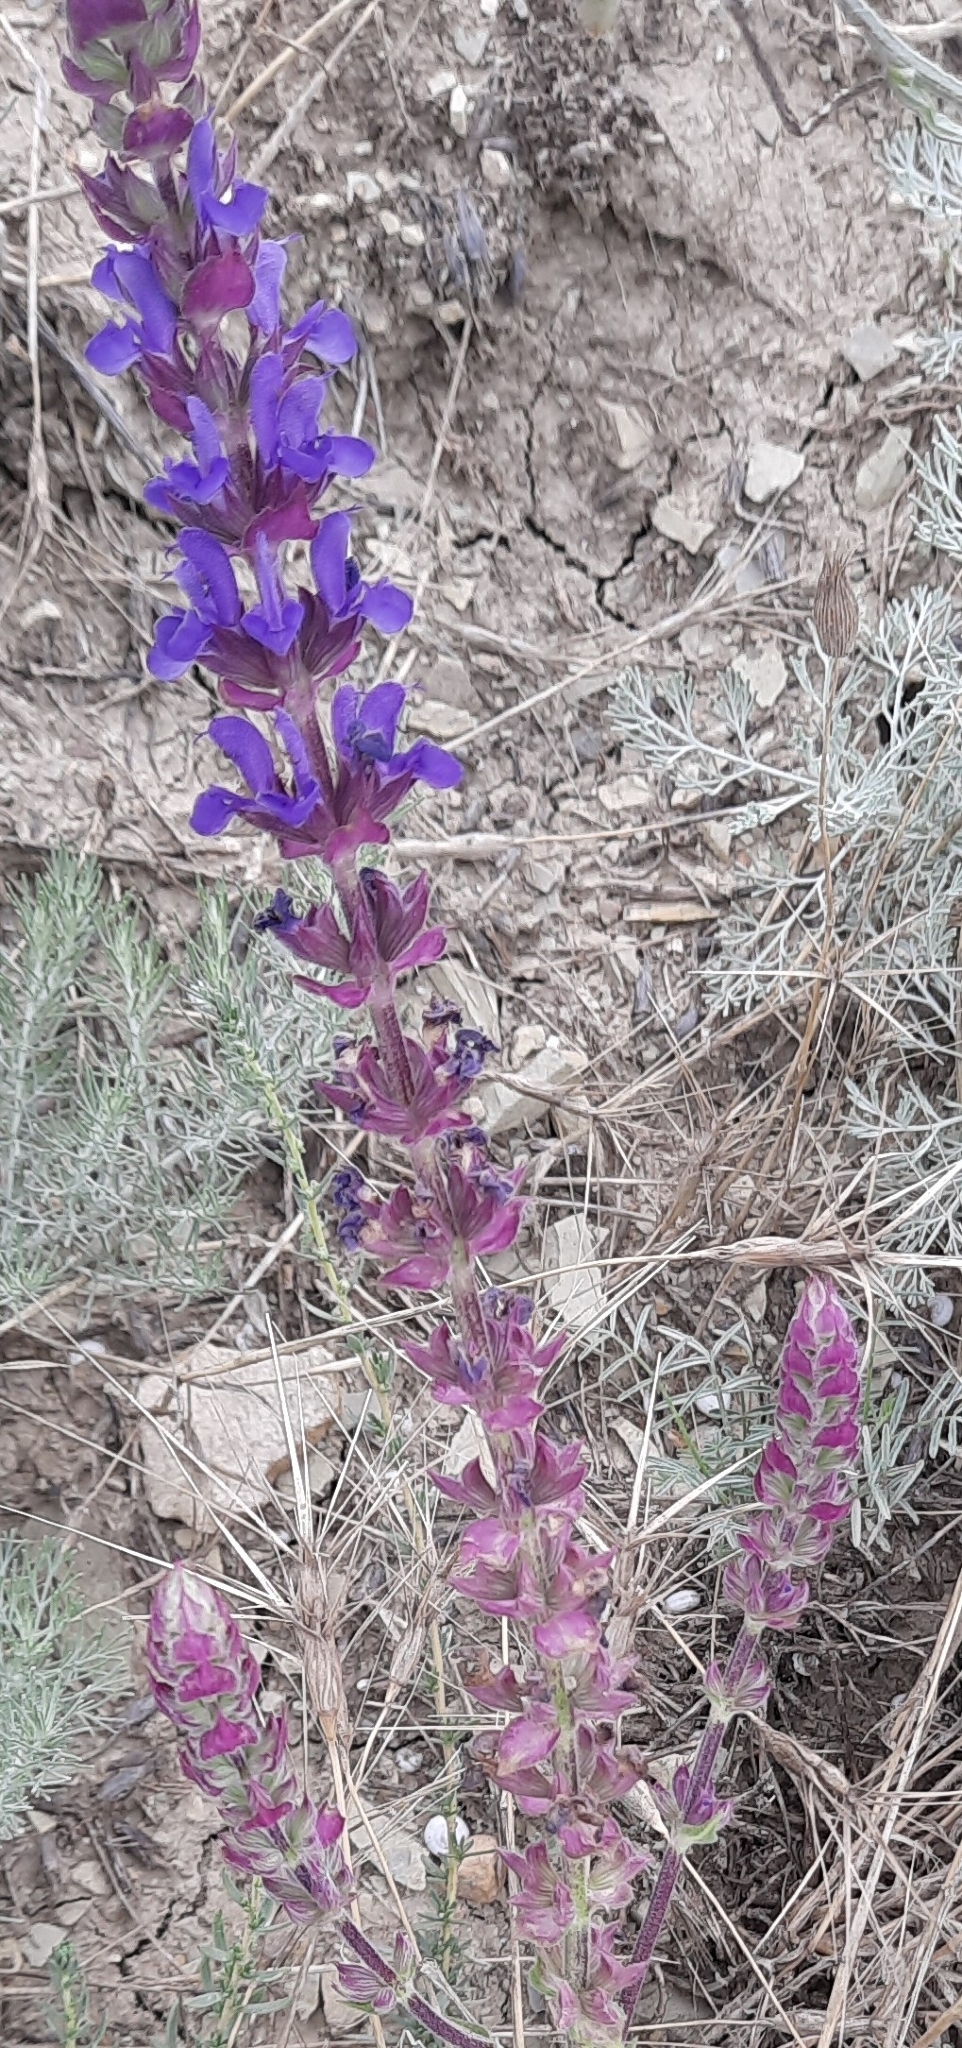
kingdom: Plantae
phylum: Tracheophyta
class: Magnoliopsida
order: Lamiales
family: Lamiaceae
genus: Salvia
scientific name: Salvia nemorosa
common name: Balkan clary
